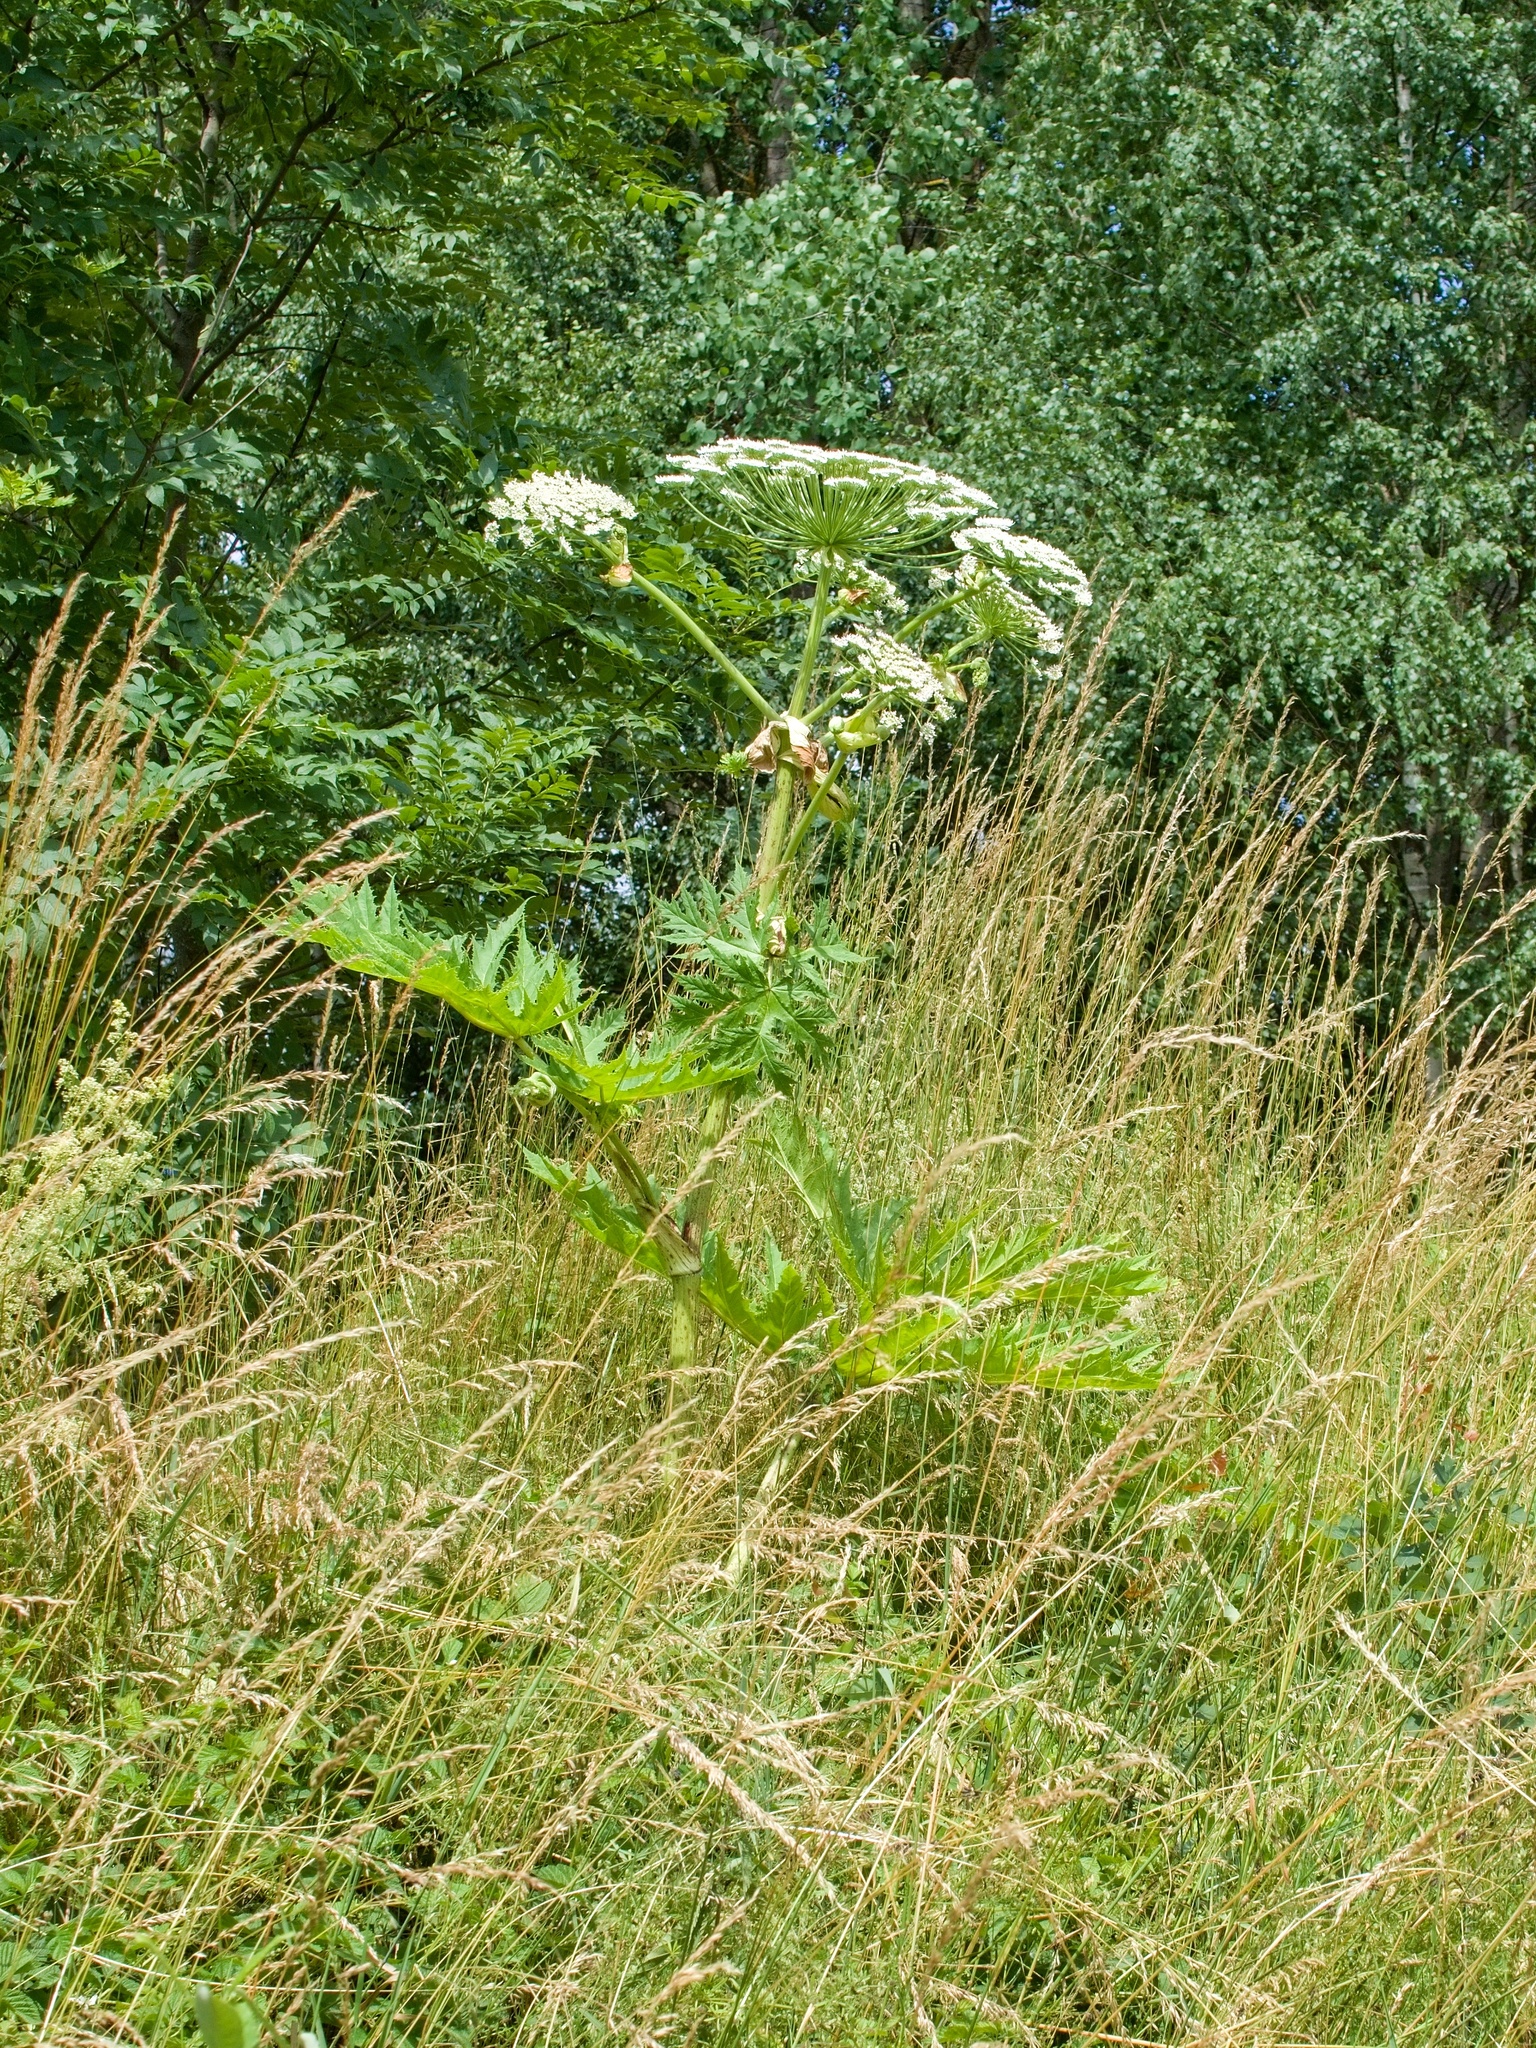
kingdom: Plantae
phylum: Tracheophyta
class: Magnoliopsida
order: Apiales
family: Apiaceae
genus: Heracleum
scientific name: Heracleum mantegazzianum
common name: Giant hogweed
